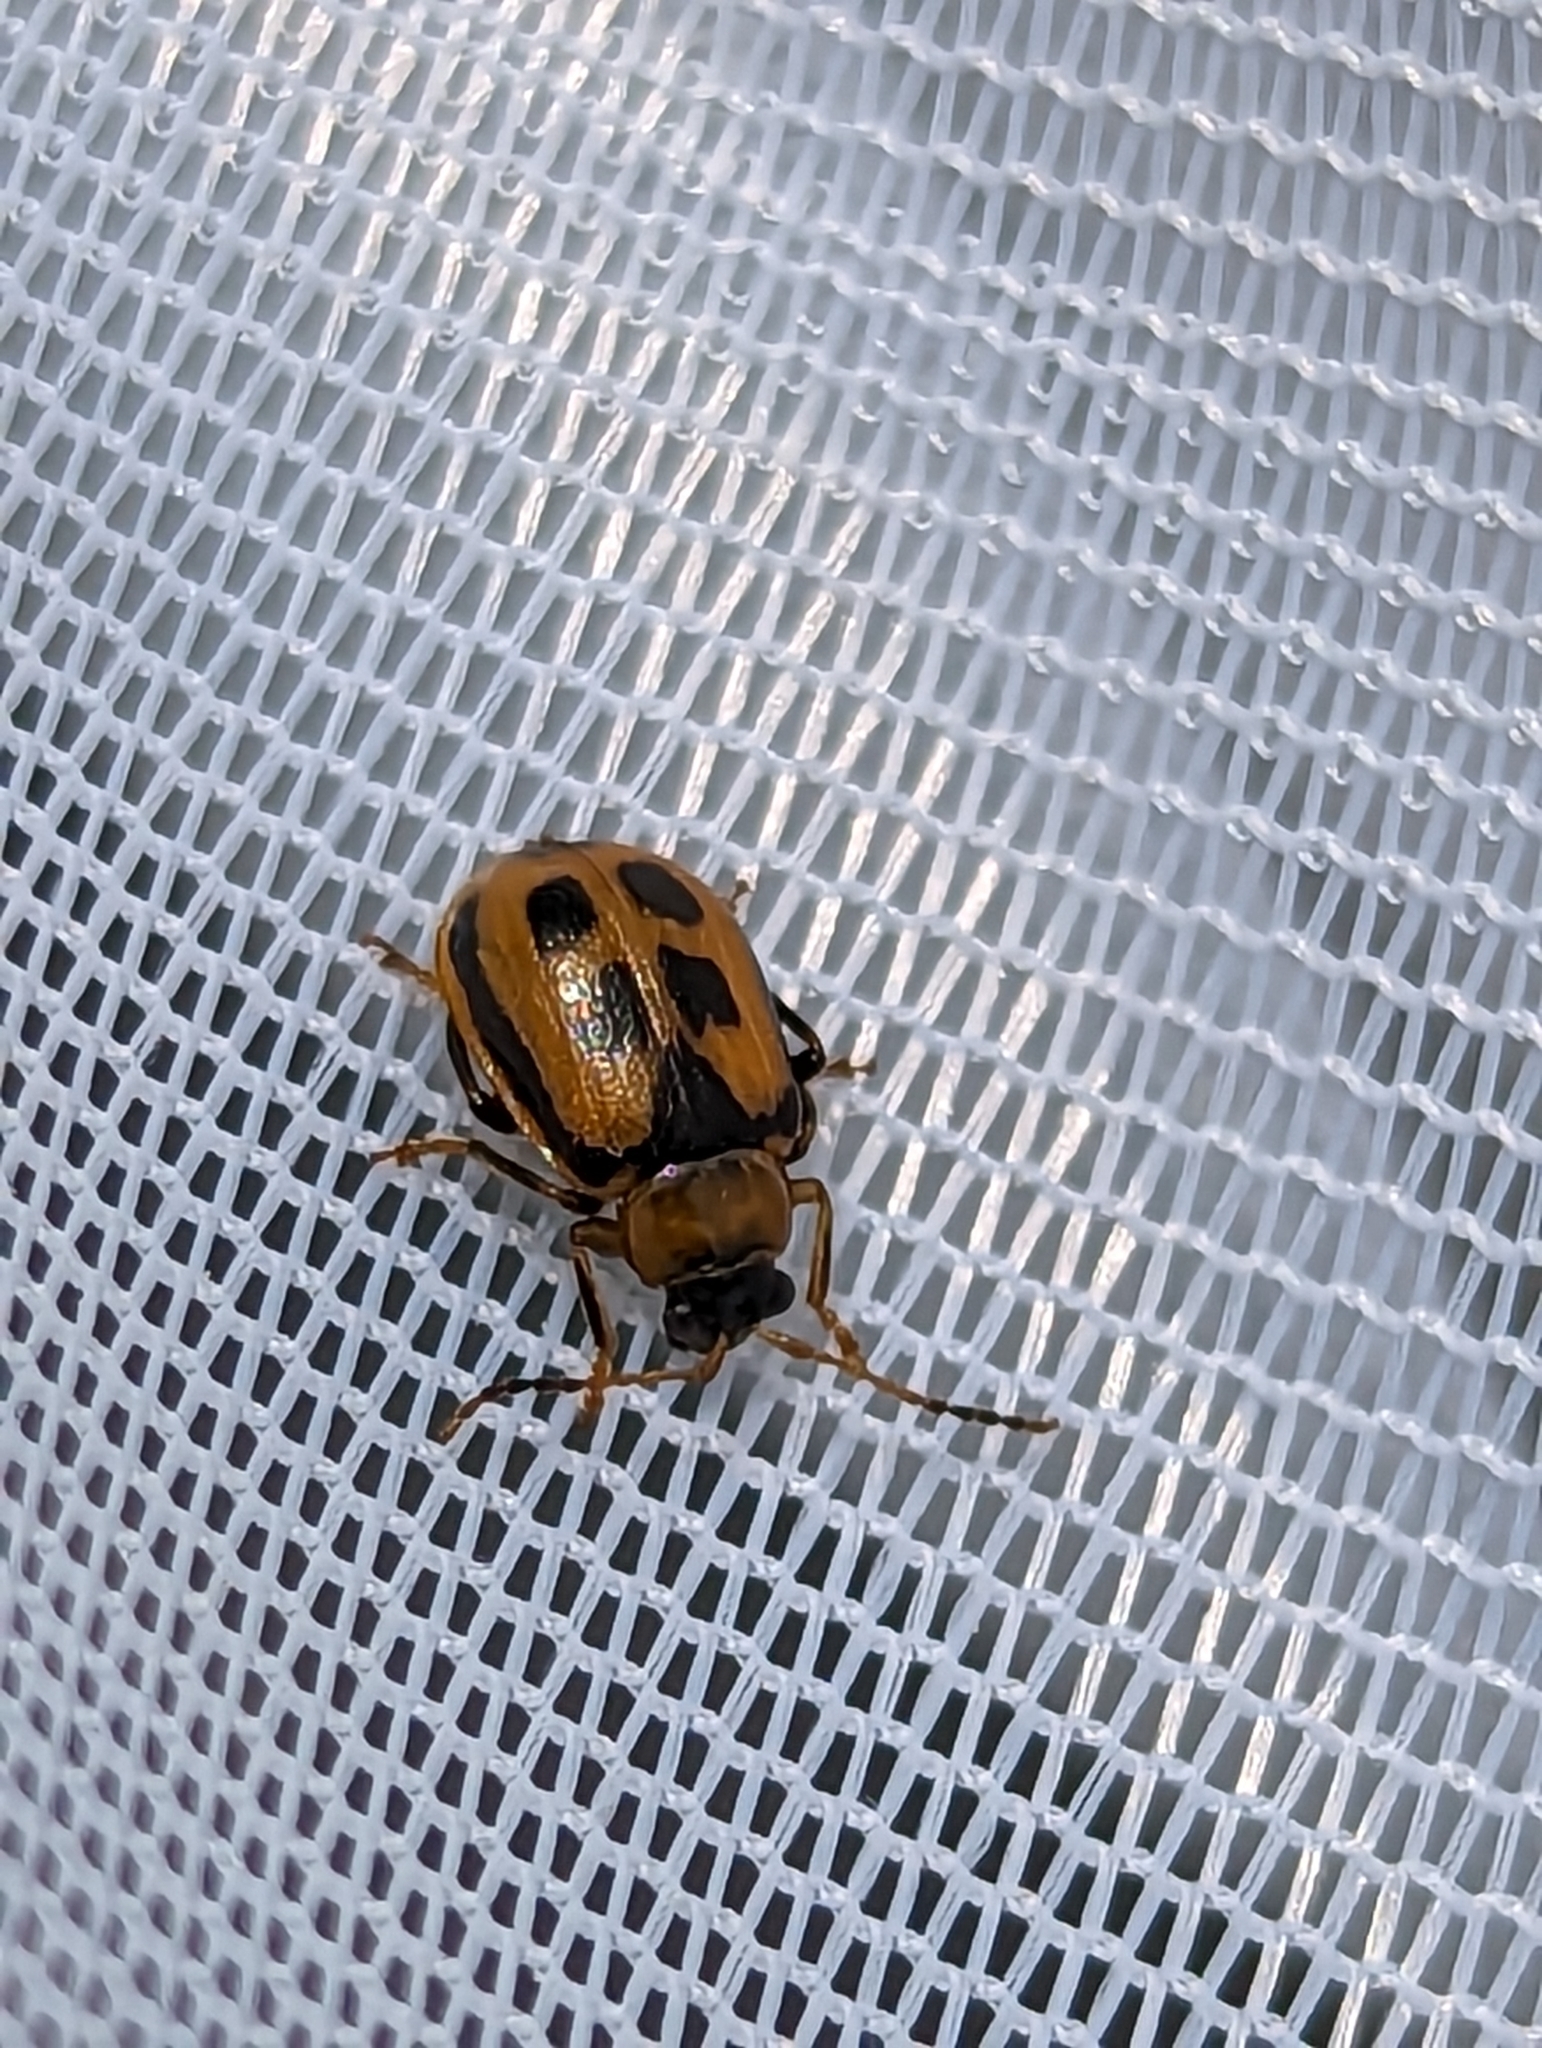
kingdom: Animalia
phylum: Arthropoda
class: Insecta
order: Coleoptera
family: Chrysomelidae
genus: Cerotoma
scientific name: Cerotoma trifurcata
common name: Bean leaf beetle
